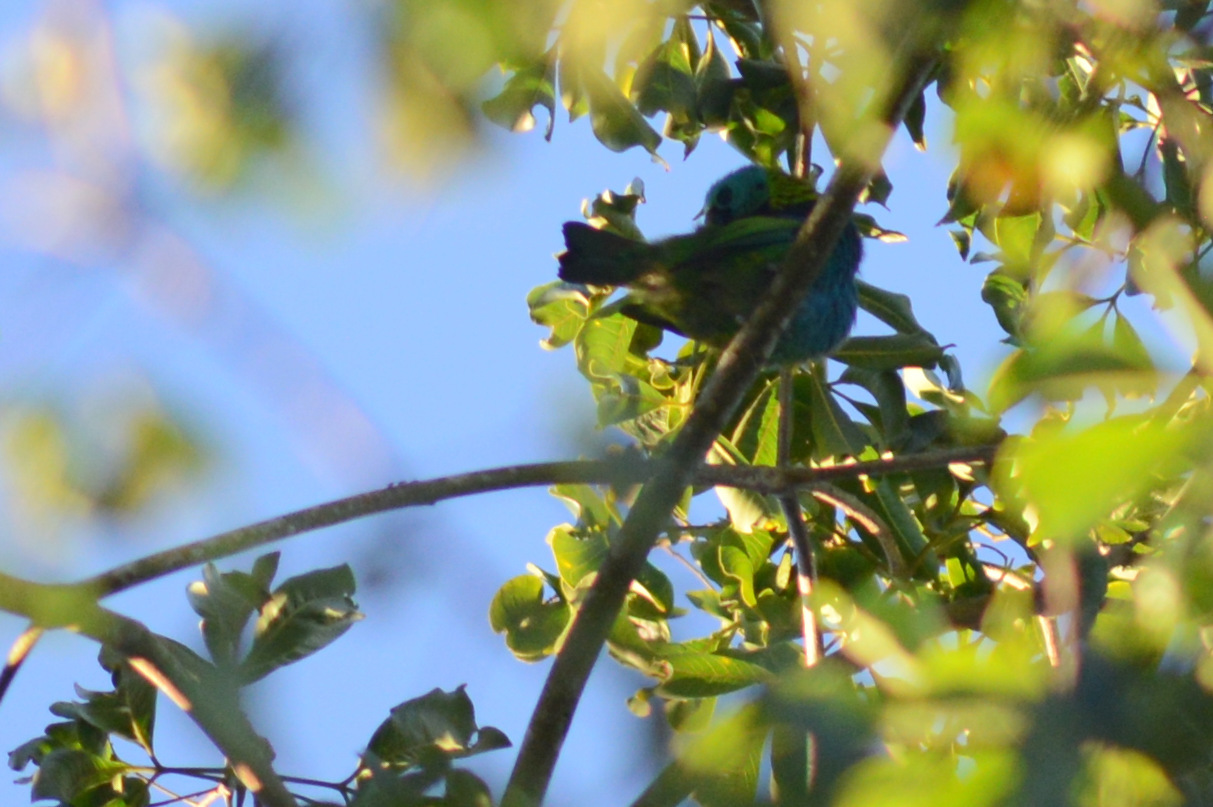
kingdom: Animalia
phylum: Chordata
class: Aves
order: Passeriformes
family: Thraupidae
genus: Tangara
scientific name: Tangara seledon
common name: Green-headed tanager
